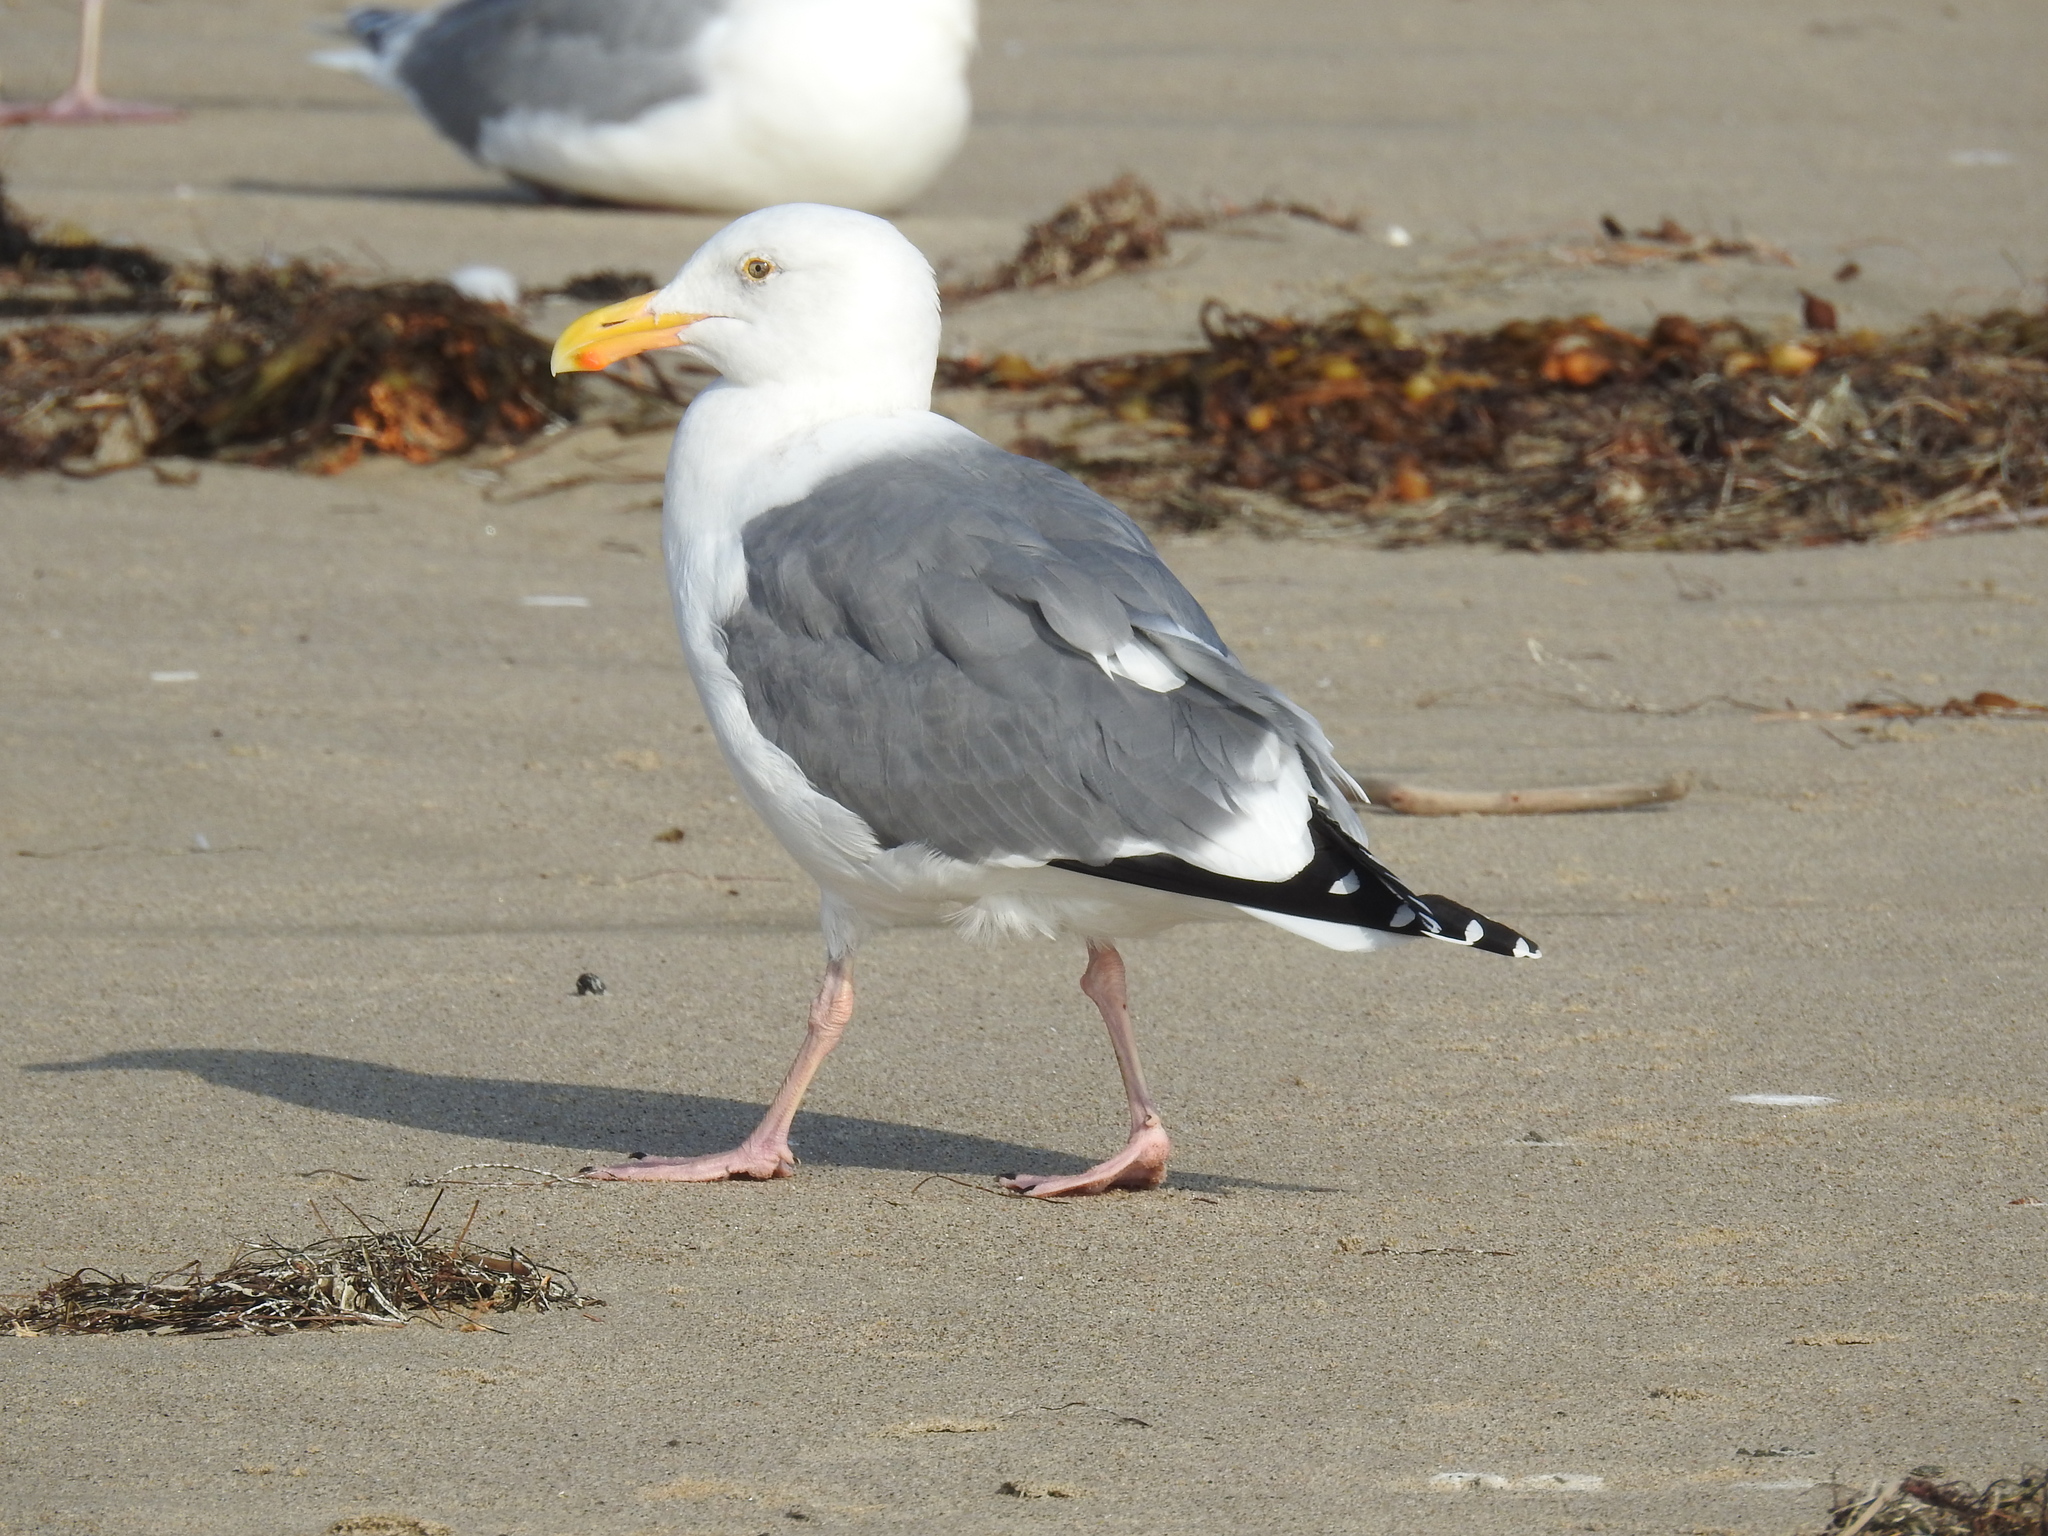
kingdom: Animalia
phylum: Chordata
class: Aves
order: Charadriiformes
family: Laridae
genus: Larus
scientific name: Larus occidentalis
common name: Western gull
